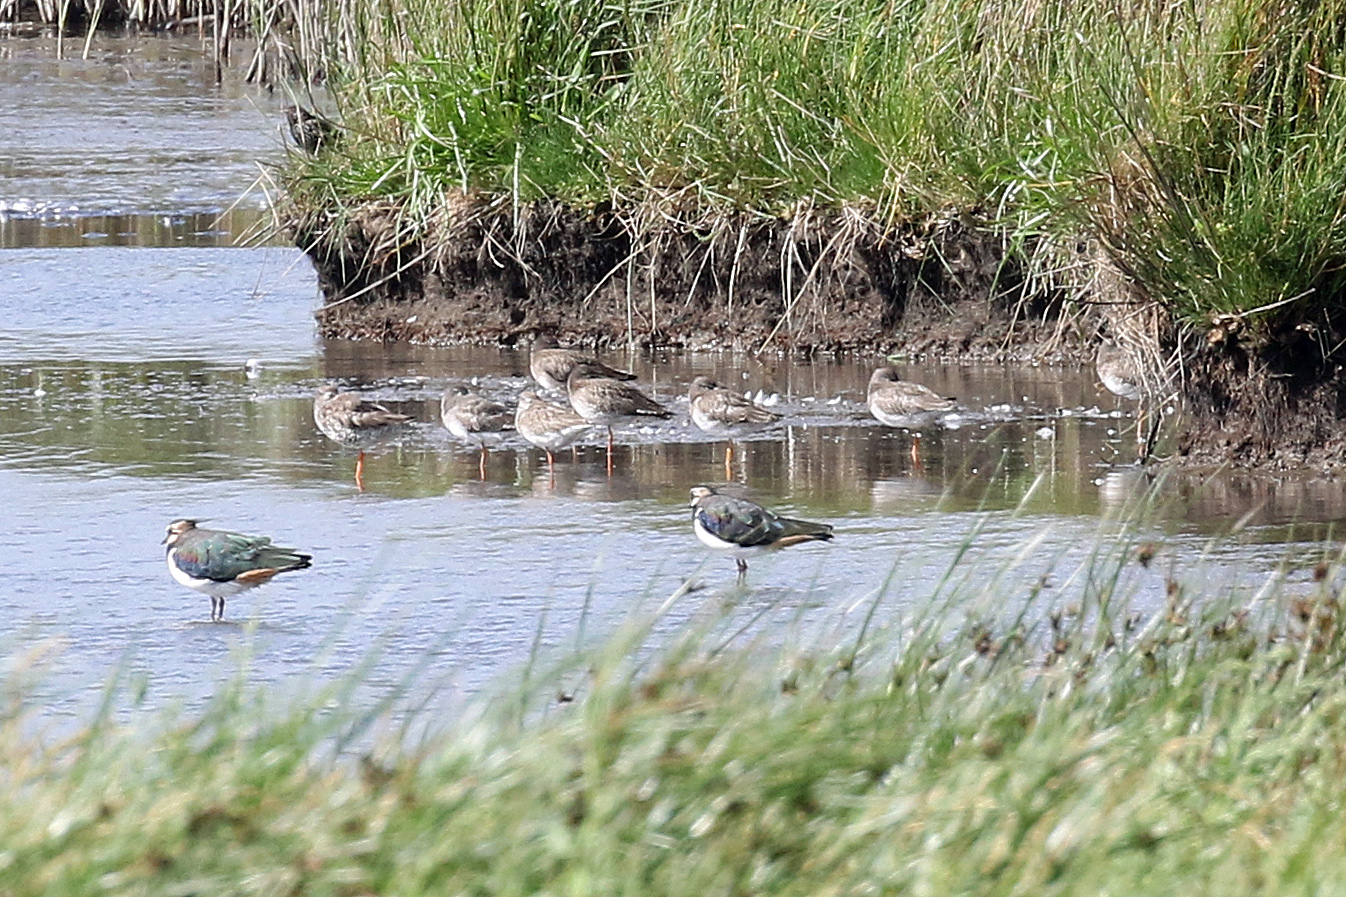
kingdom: Animalia
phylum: Chordata
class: Aves
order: Charadriiformes
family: Scolopacidae
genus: Tringa
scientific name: Tringa totanus
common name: Common redshank
